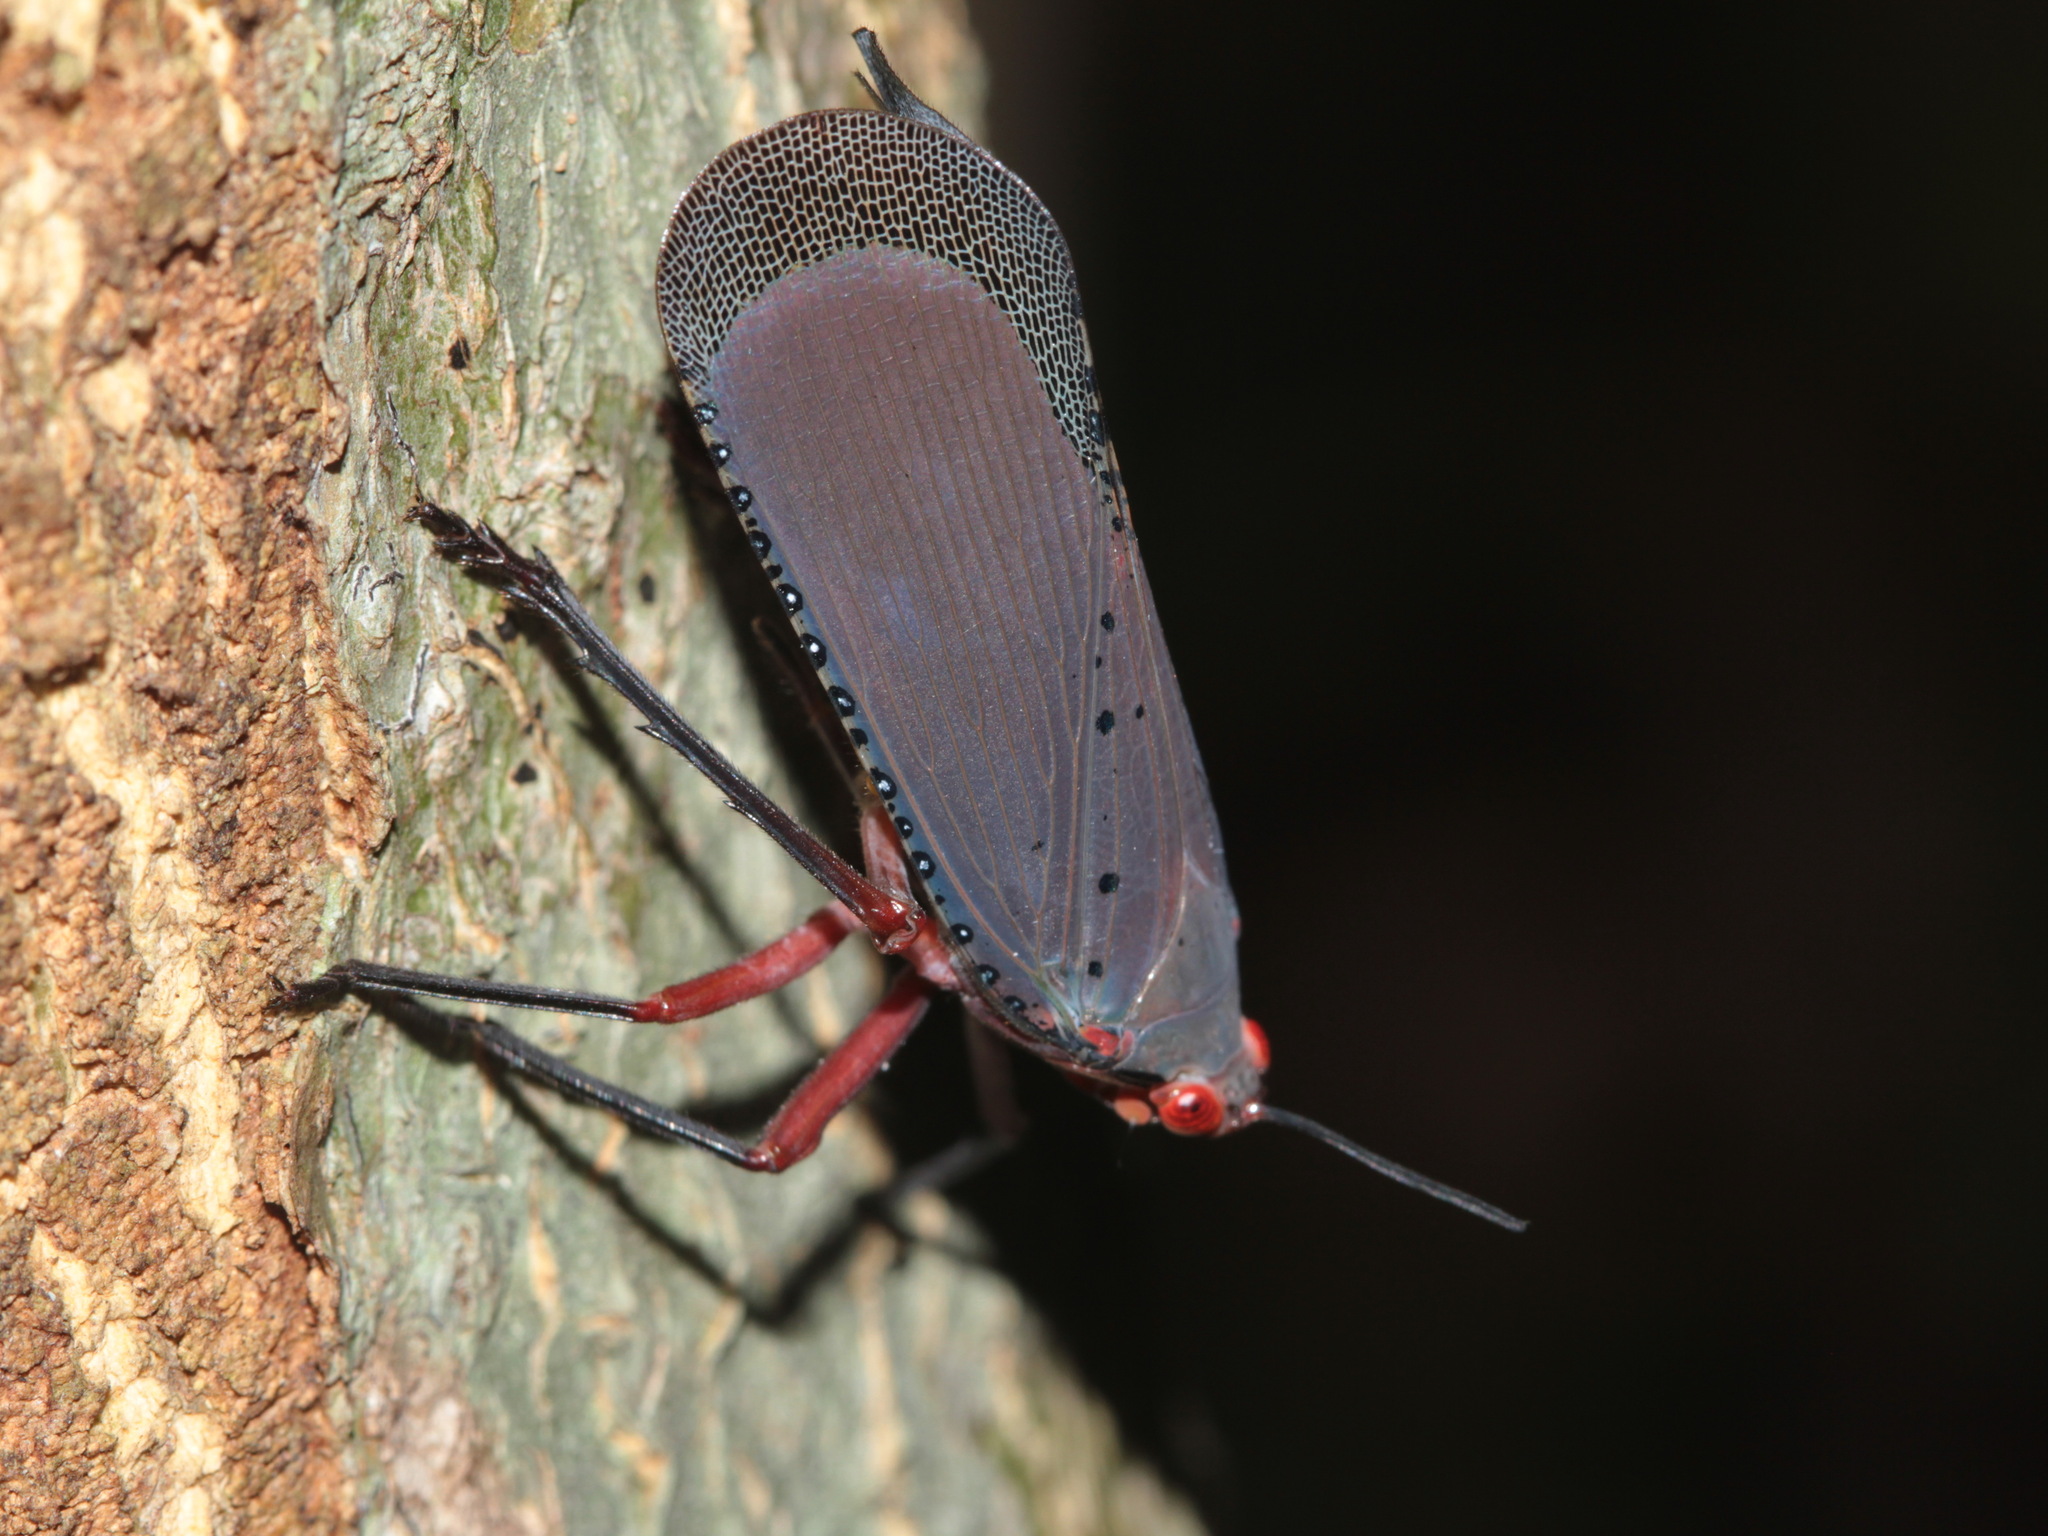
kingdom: Animalia
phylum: Arthropoda
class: Insecta
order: Hemiptera
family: Fulgoridae
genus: Kalidasa
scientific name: Kalidasa nigromaculata
